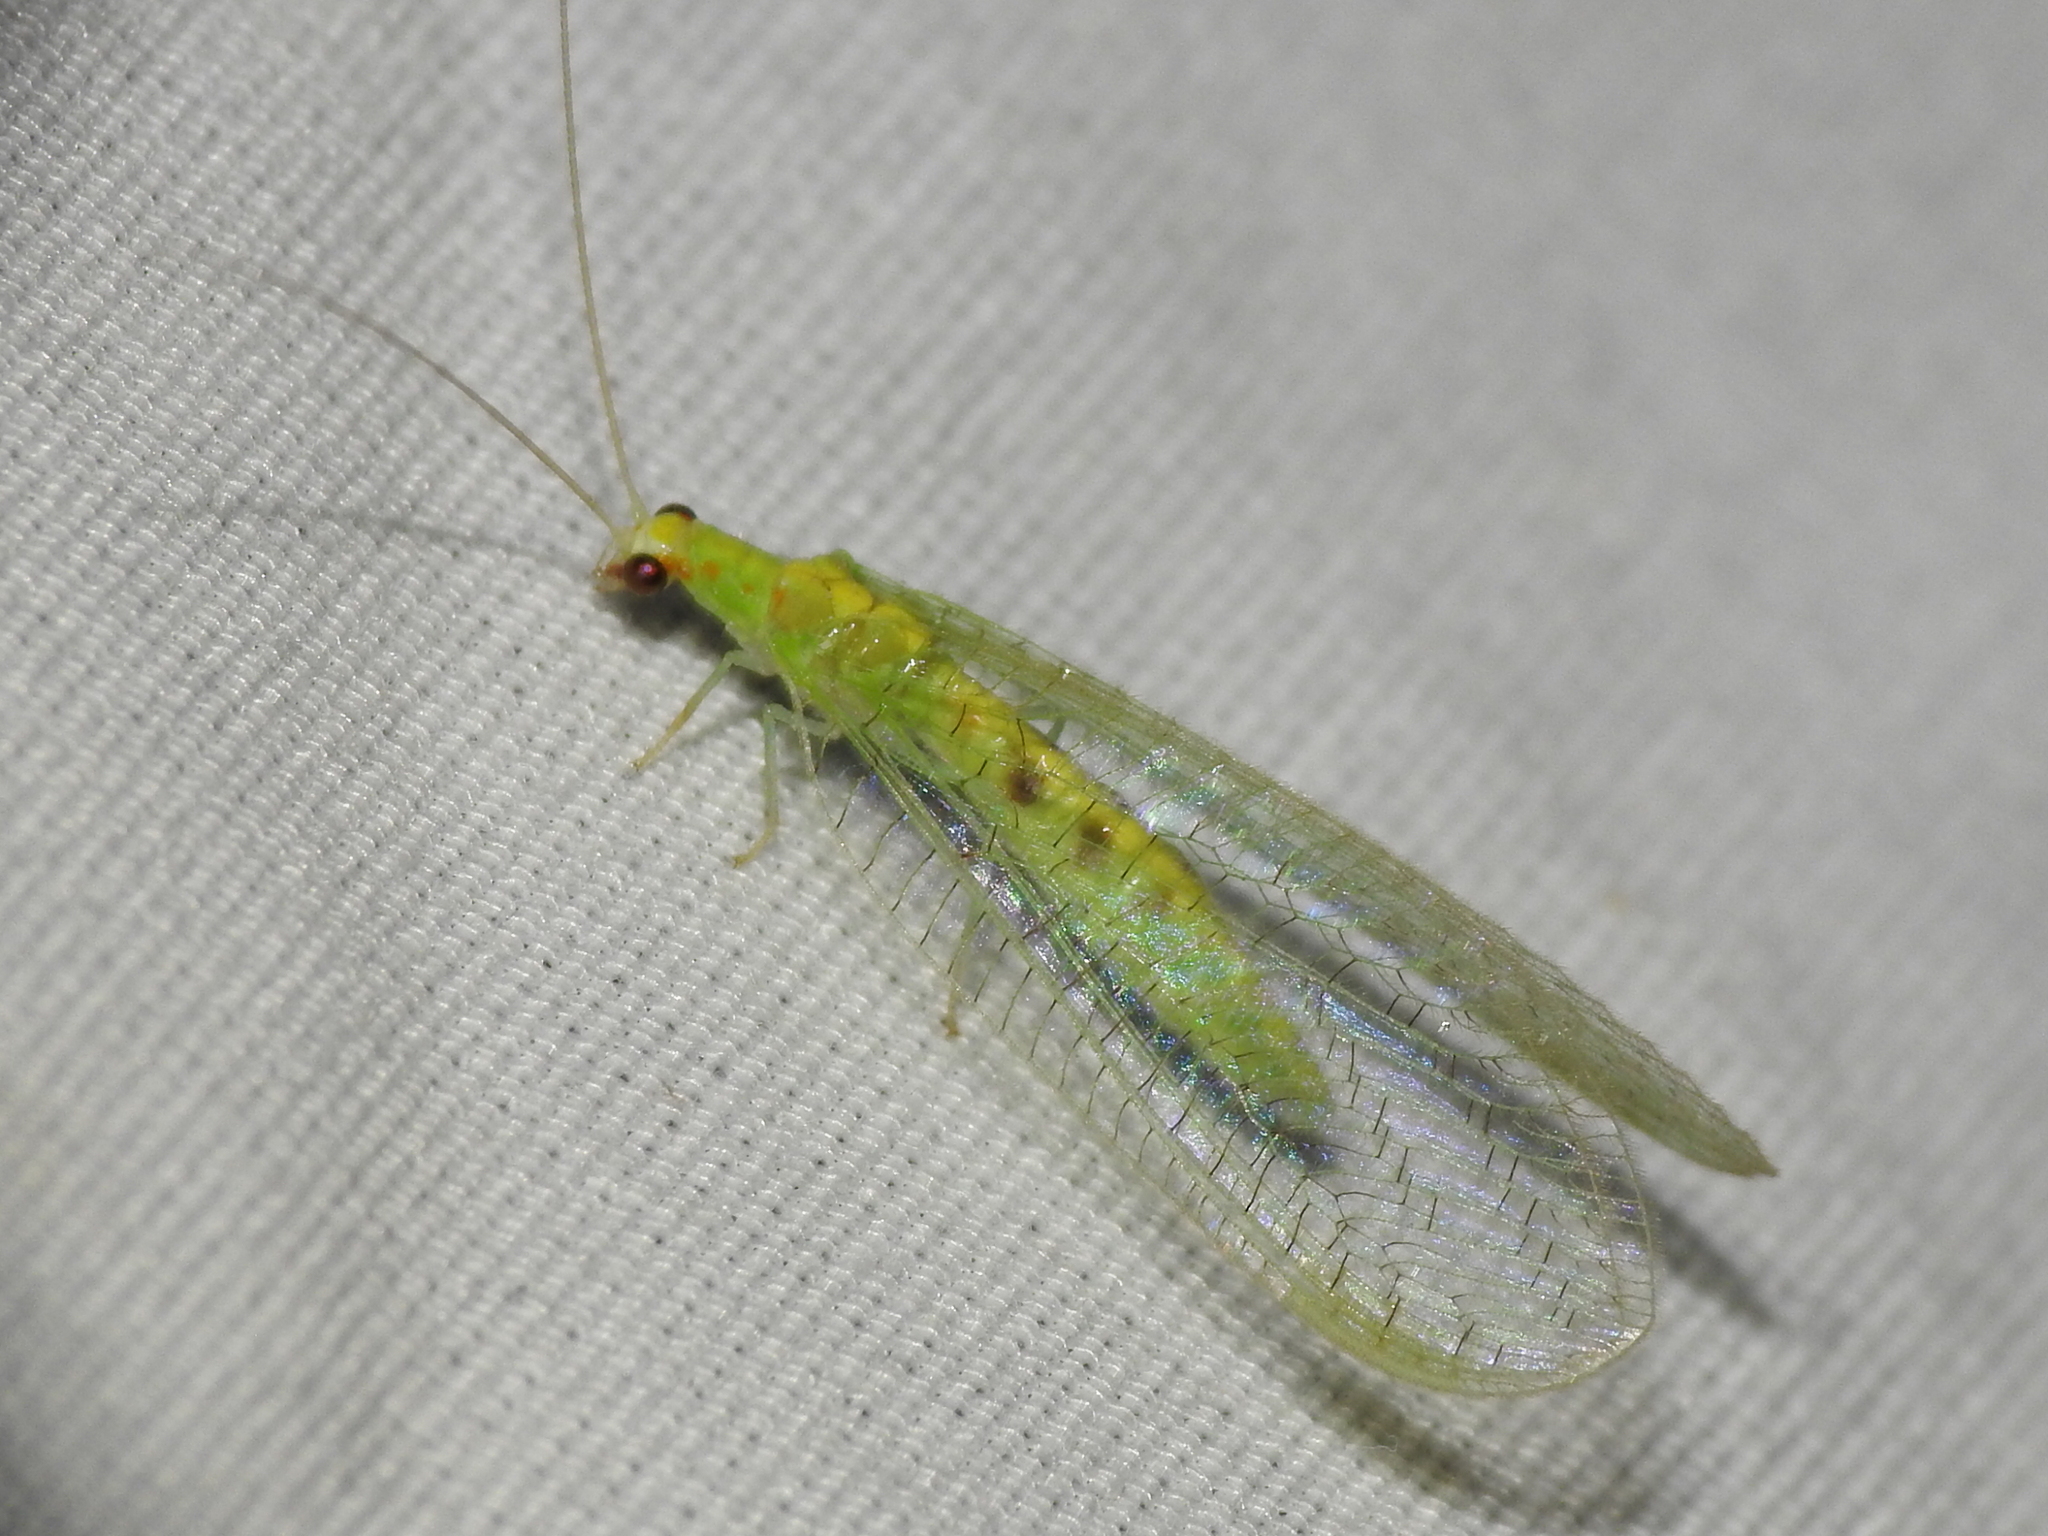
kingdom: Animalia
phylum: Arthropoda
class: Insecta
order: Neuroptera
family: Chrysopidae
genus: Chrysopa
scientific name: Chrysopa quadripunctata
